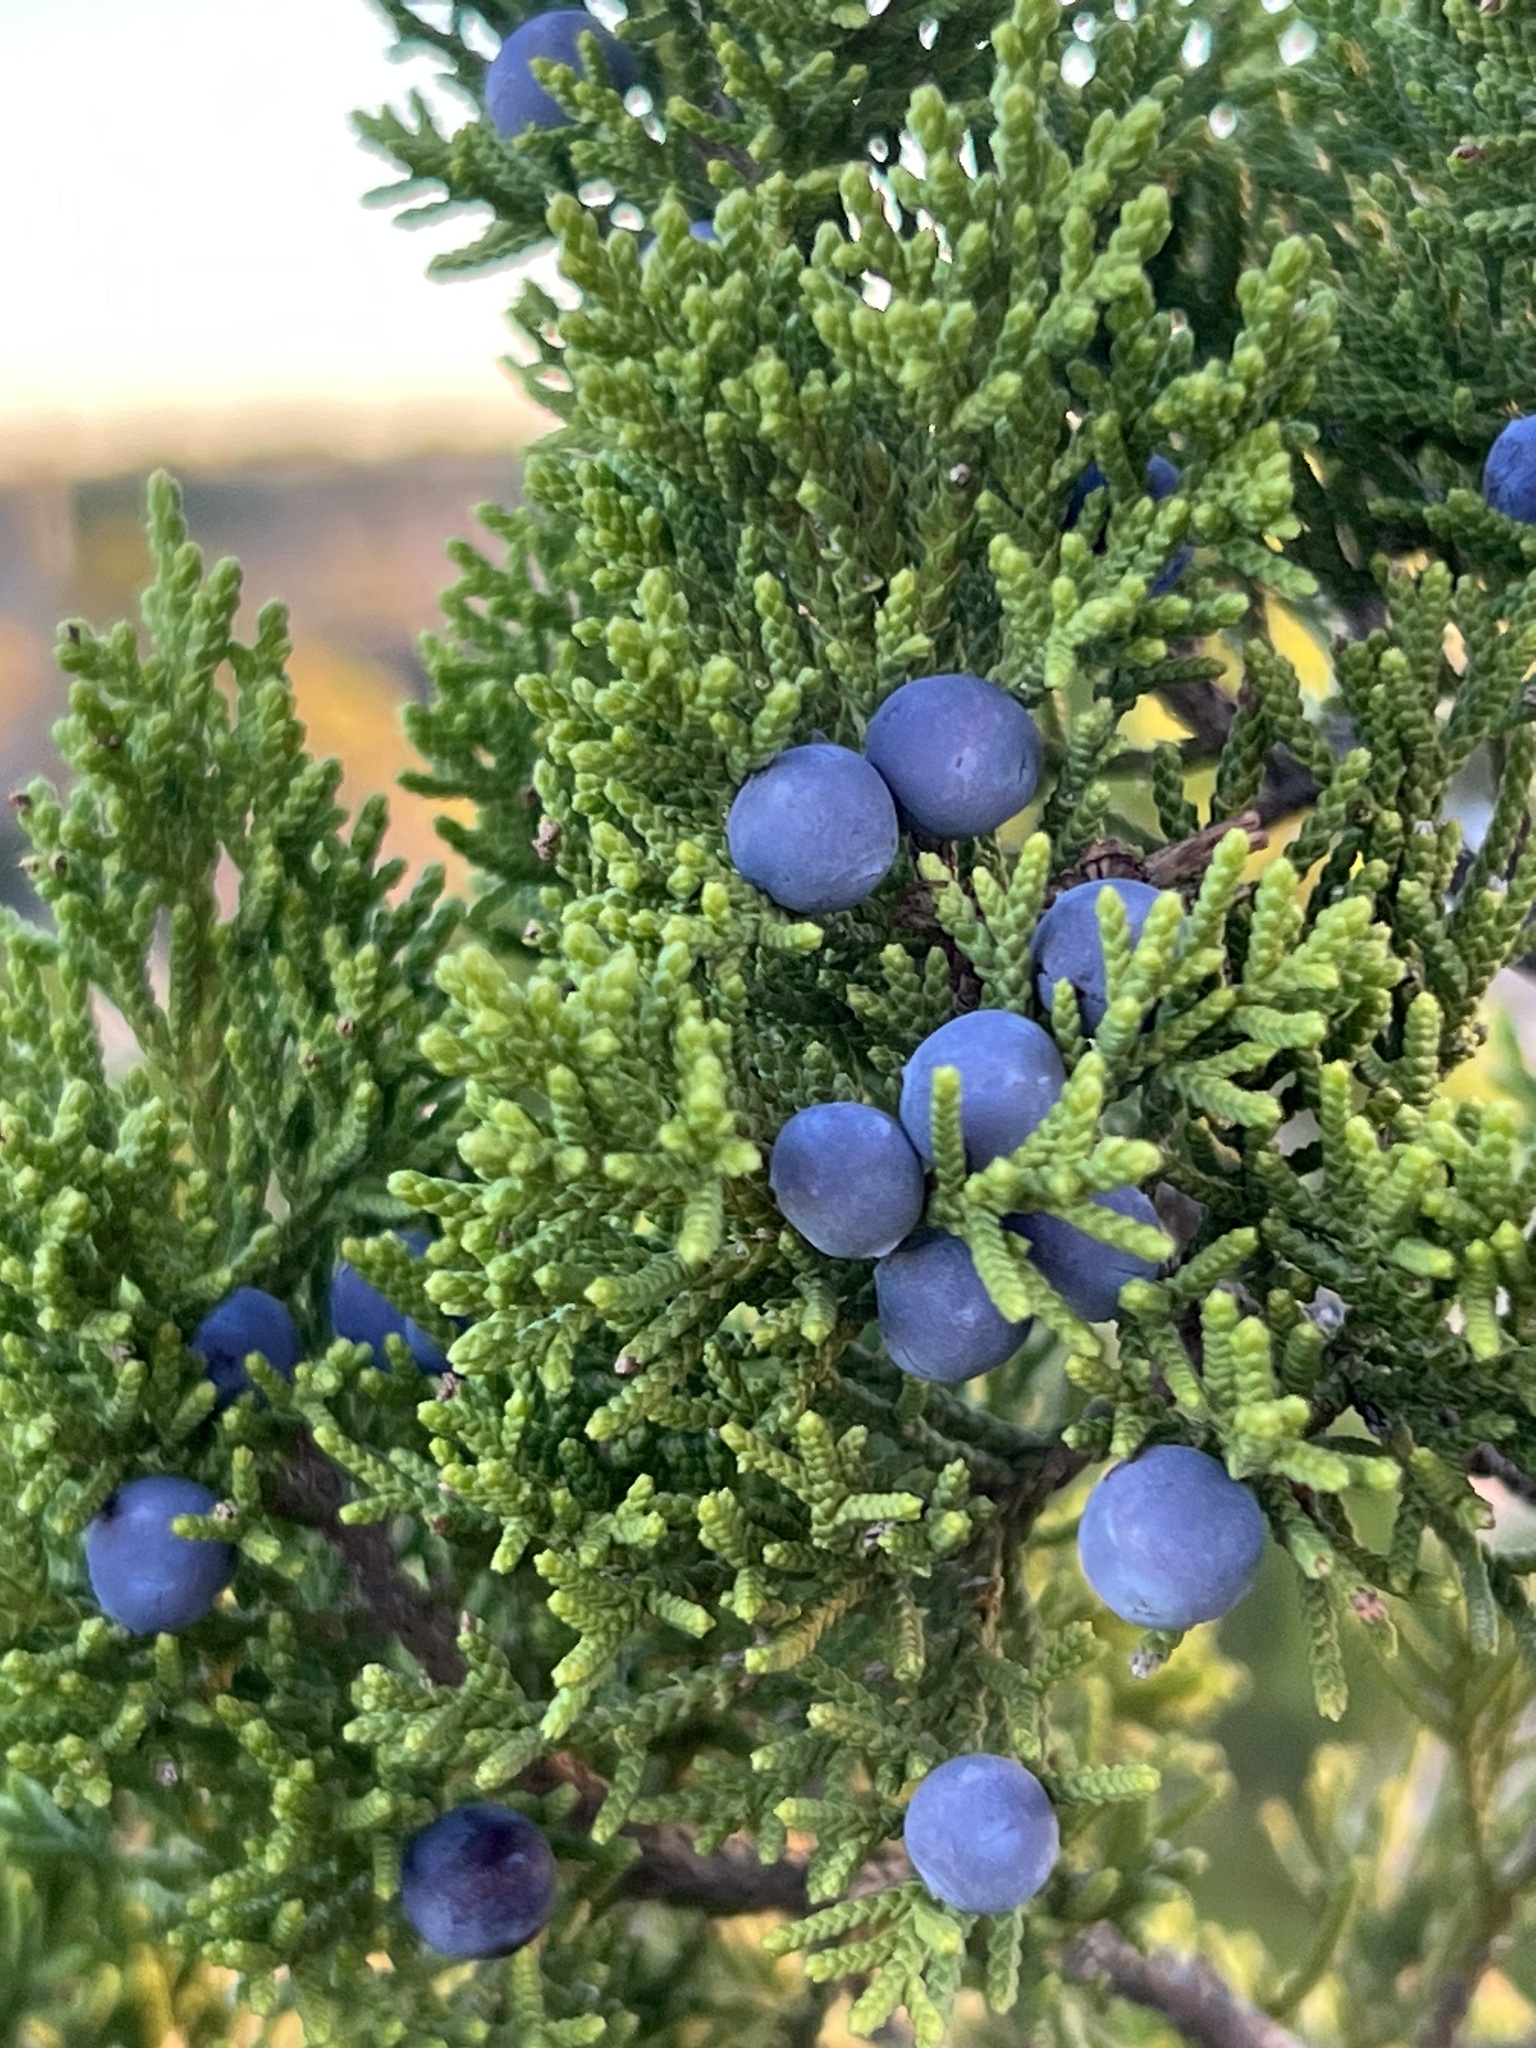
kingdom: Plantae
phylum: Tracheophyta
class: Pinopsida
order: Pinales
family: Cupressaceae
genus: Juniperus
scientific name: Juniperus ashei
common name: Mexican juniper
